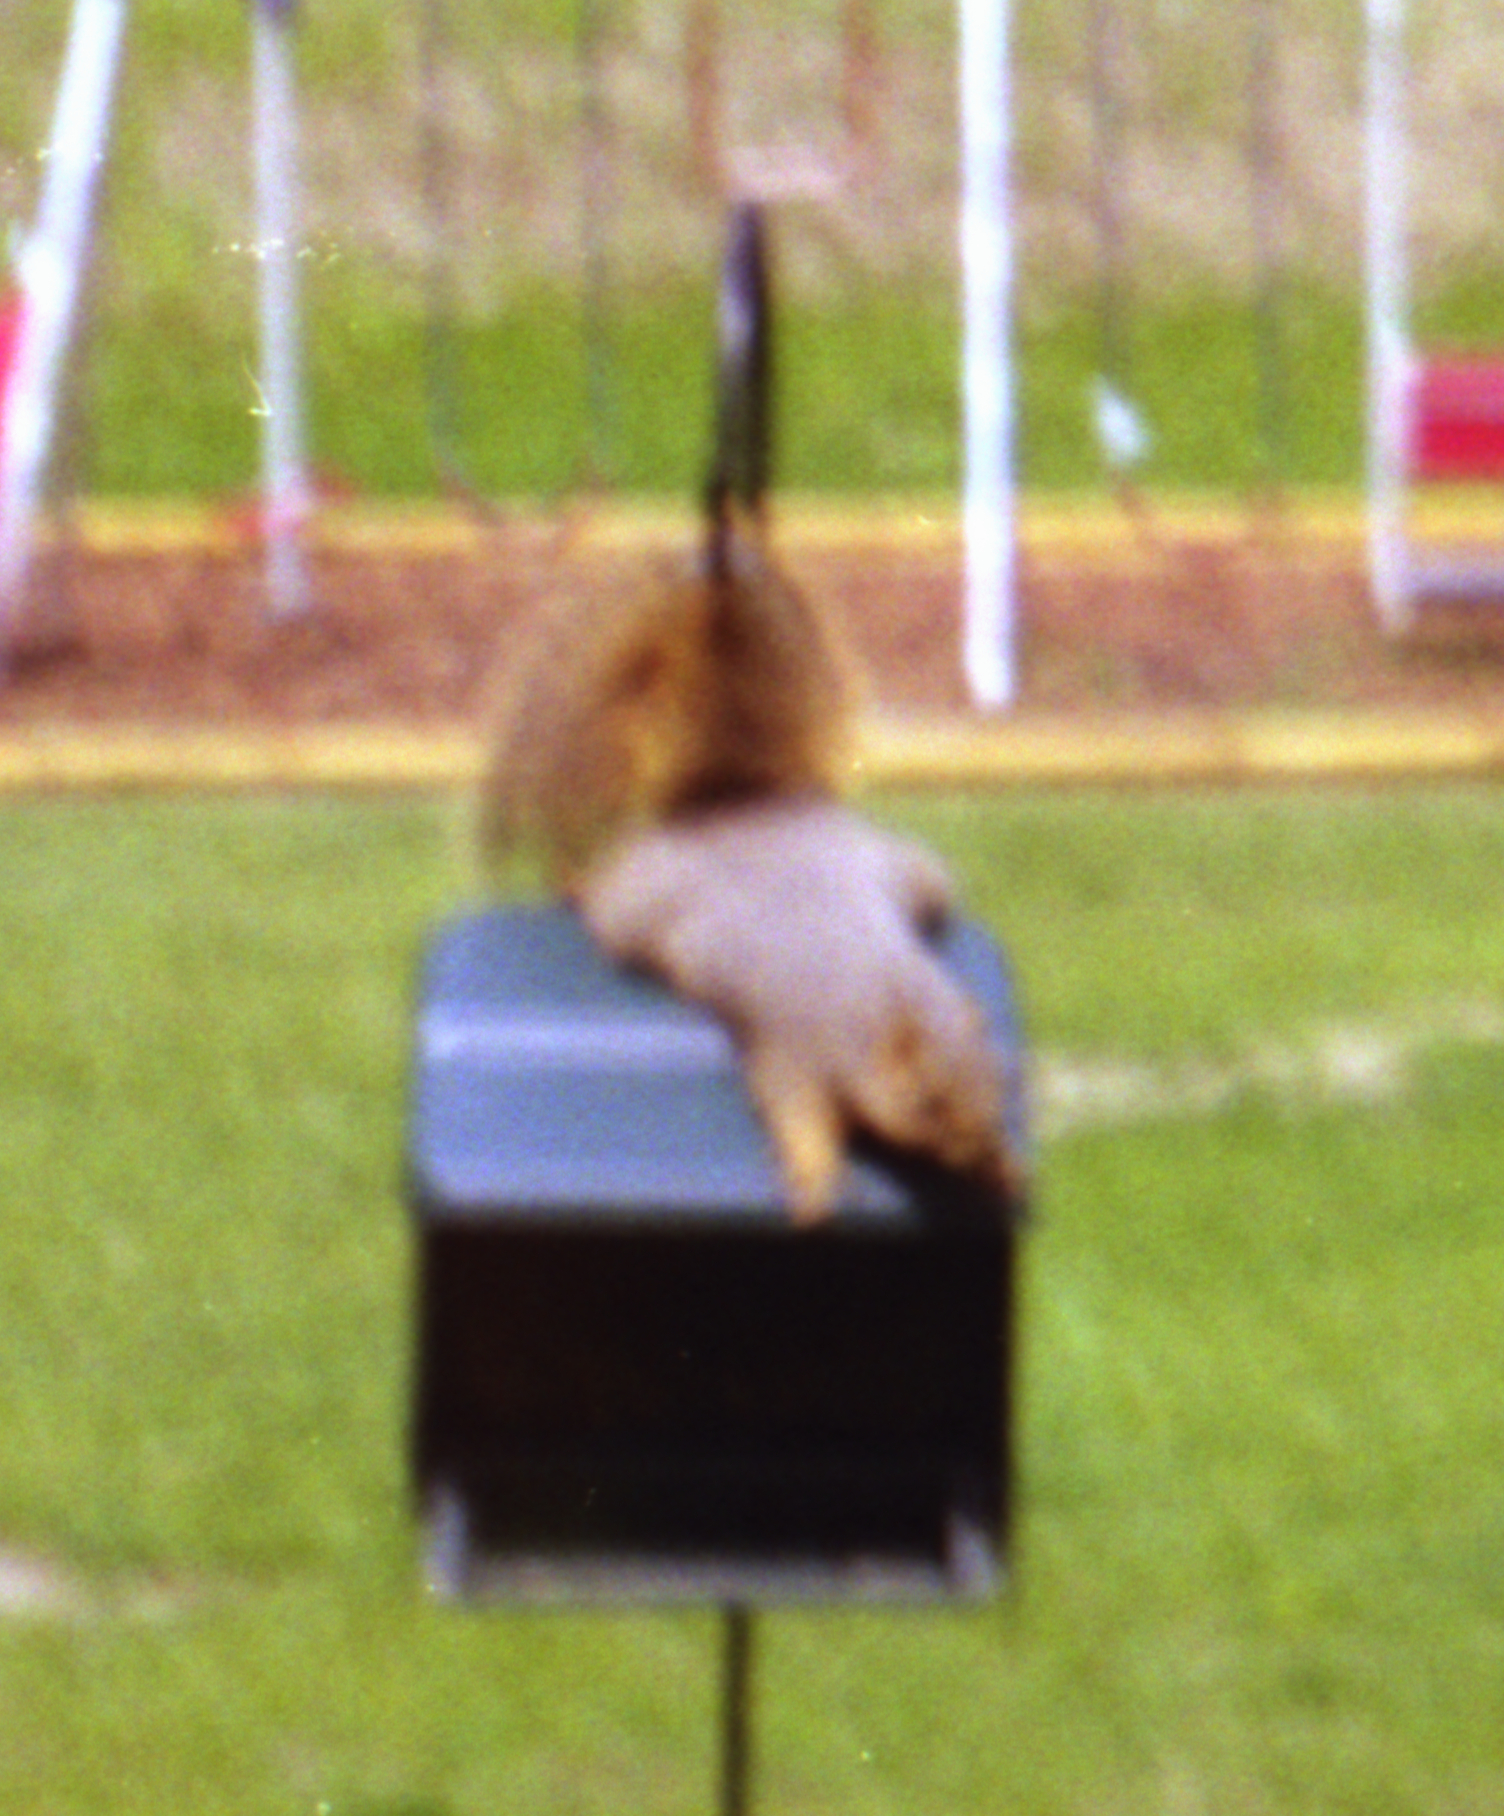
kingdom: Animalia
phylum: Chordata
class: Mammalia
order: Rodentia
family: Sciuridae
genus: Sciurus
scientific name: Sciurus niger
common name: Fox squirrel
